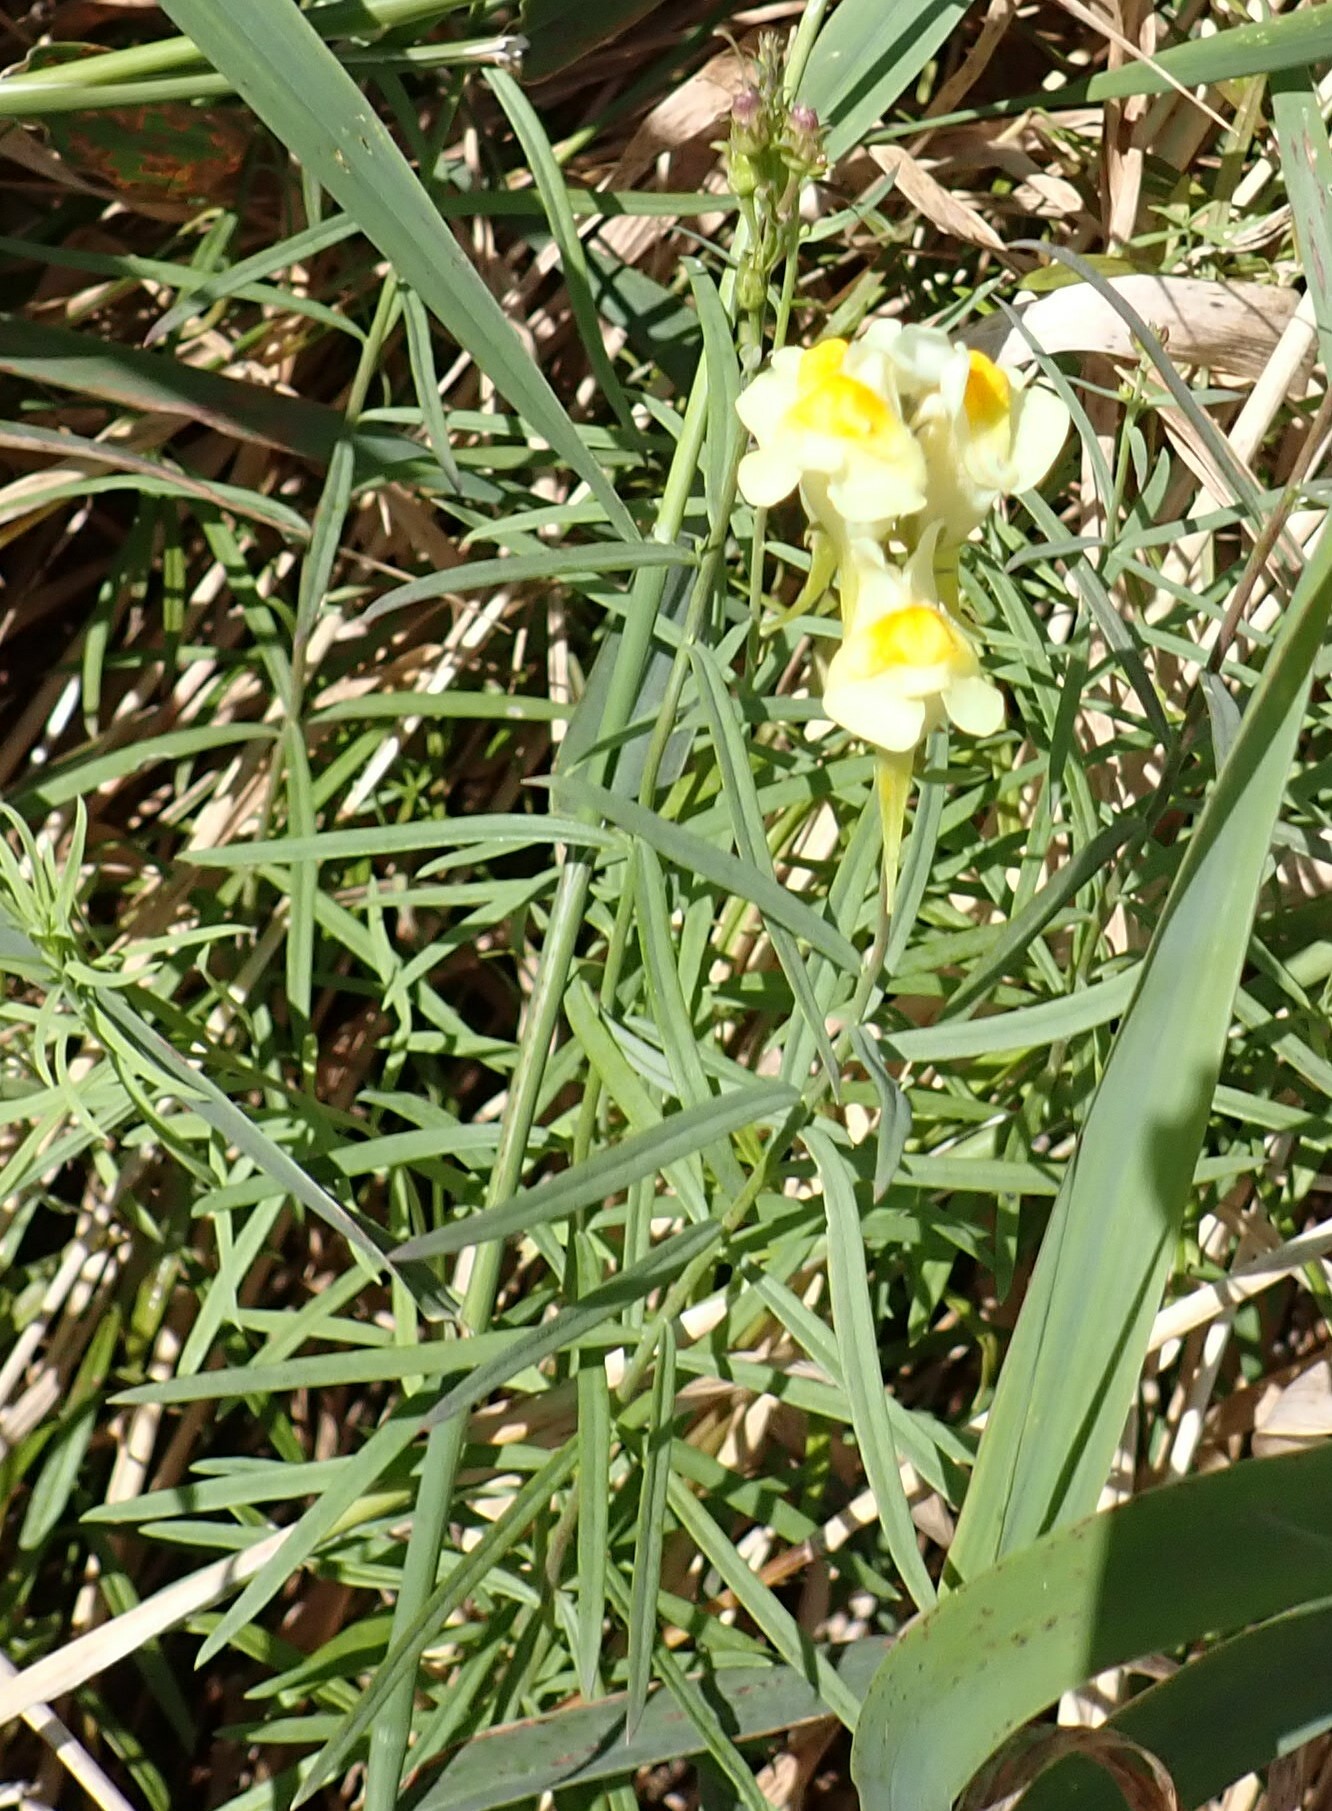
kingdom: Plantae
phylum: Tracheophyta
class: Magnoliopsida
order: Lamiales
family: Plantaginaceae
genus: Linaria
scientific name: Linaria vulgaris
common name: Butter and eggs
